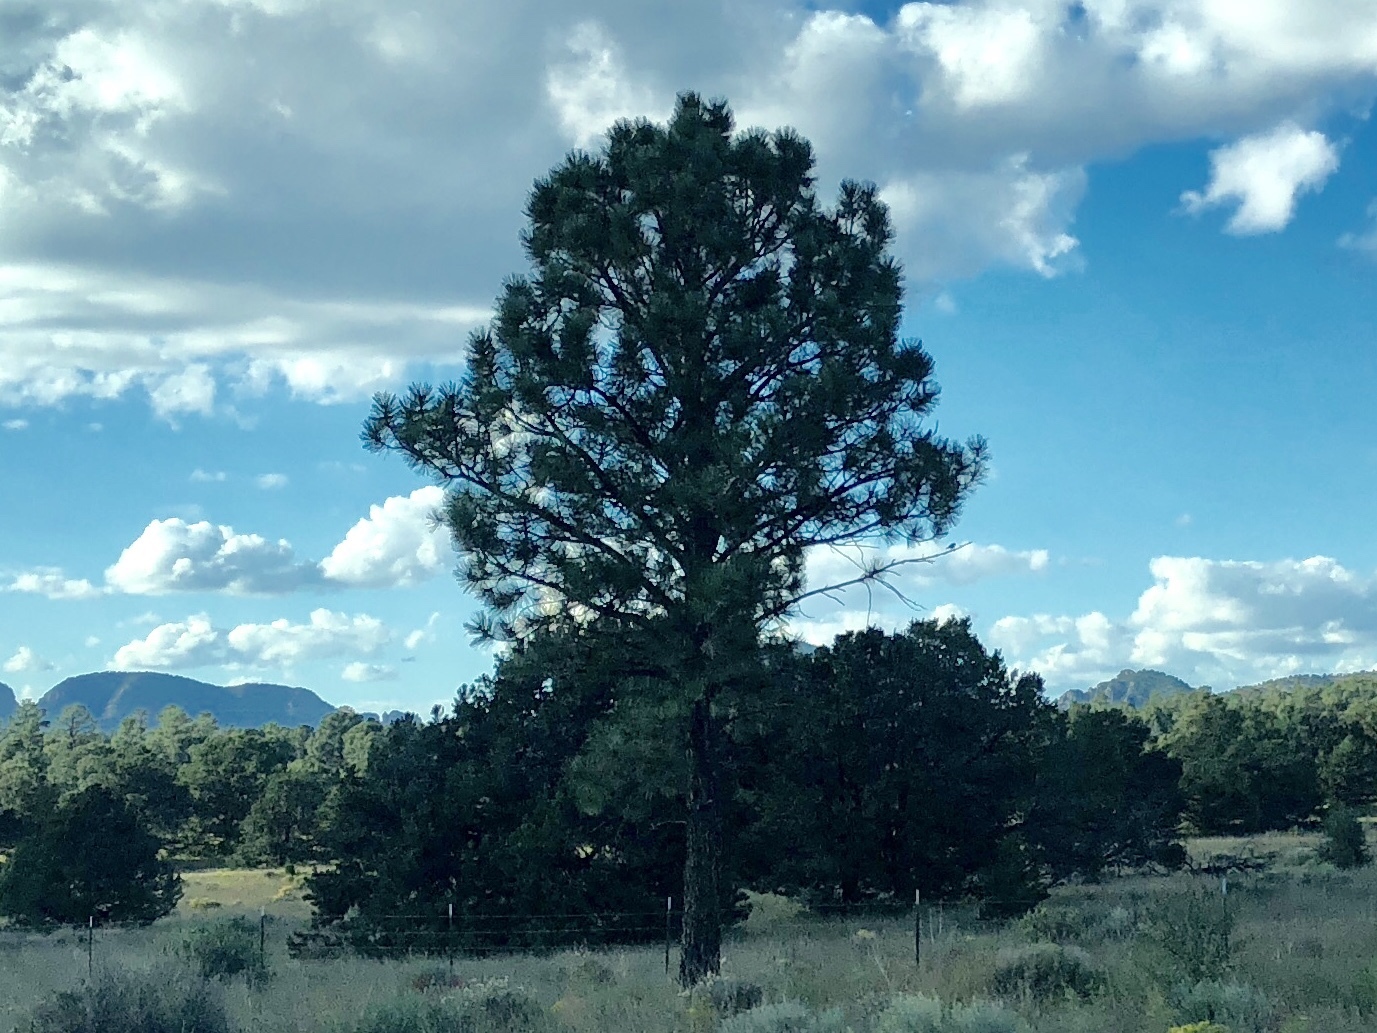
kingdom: Plantae
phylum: Tracheophyta
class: Pinopsida
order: Pinales
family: Pinaceae
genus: Pinus
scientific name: Pinus ponderosa
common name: Western yellow-pine
